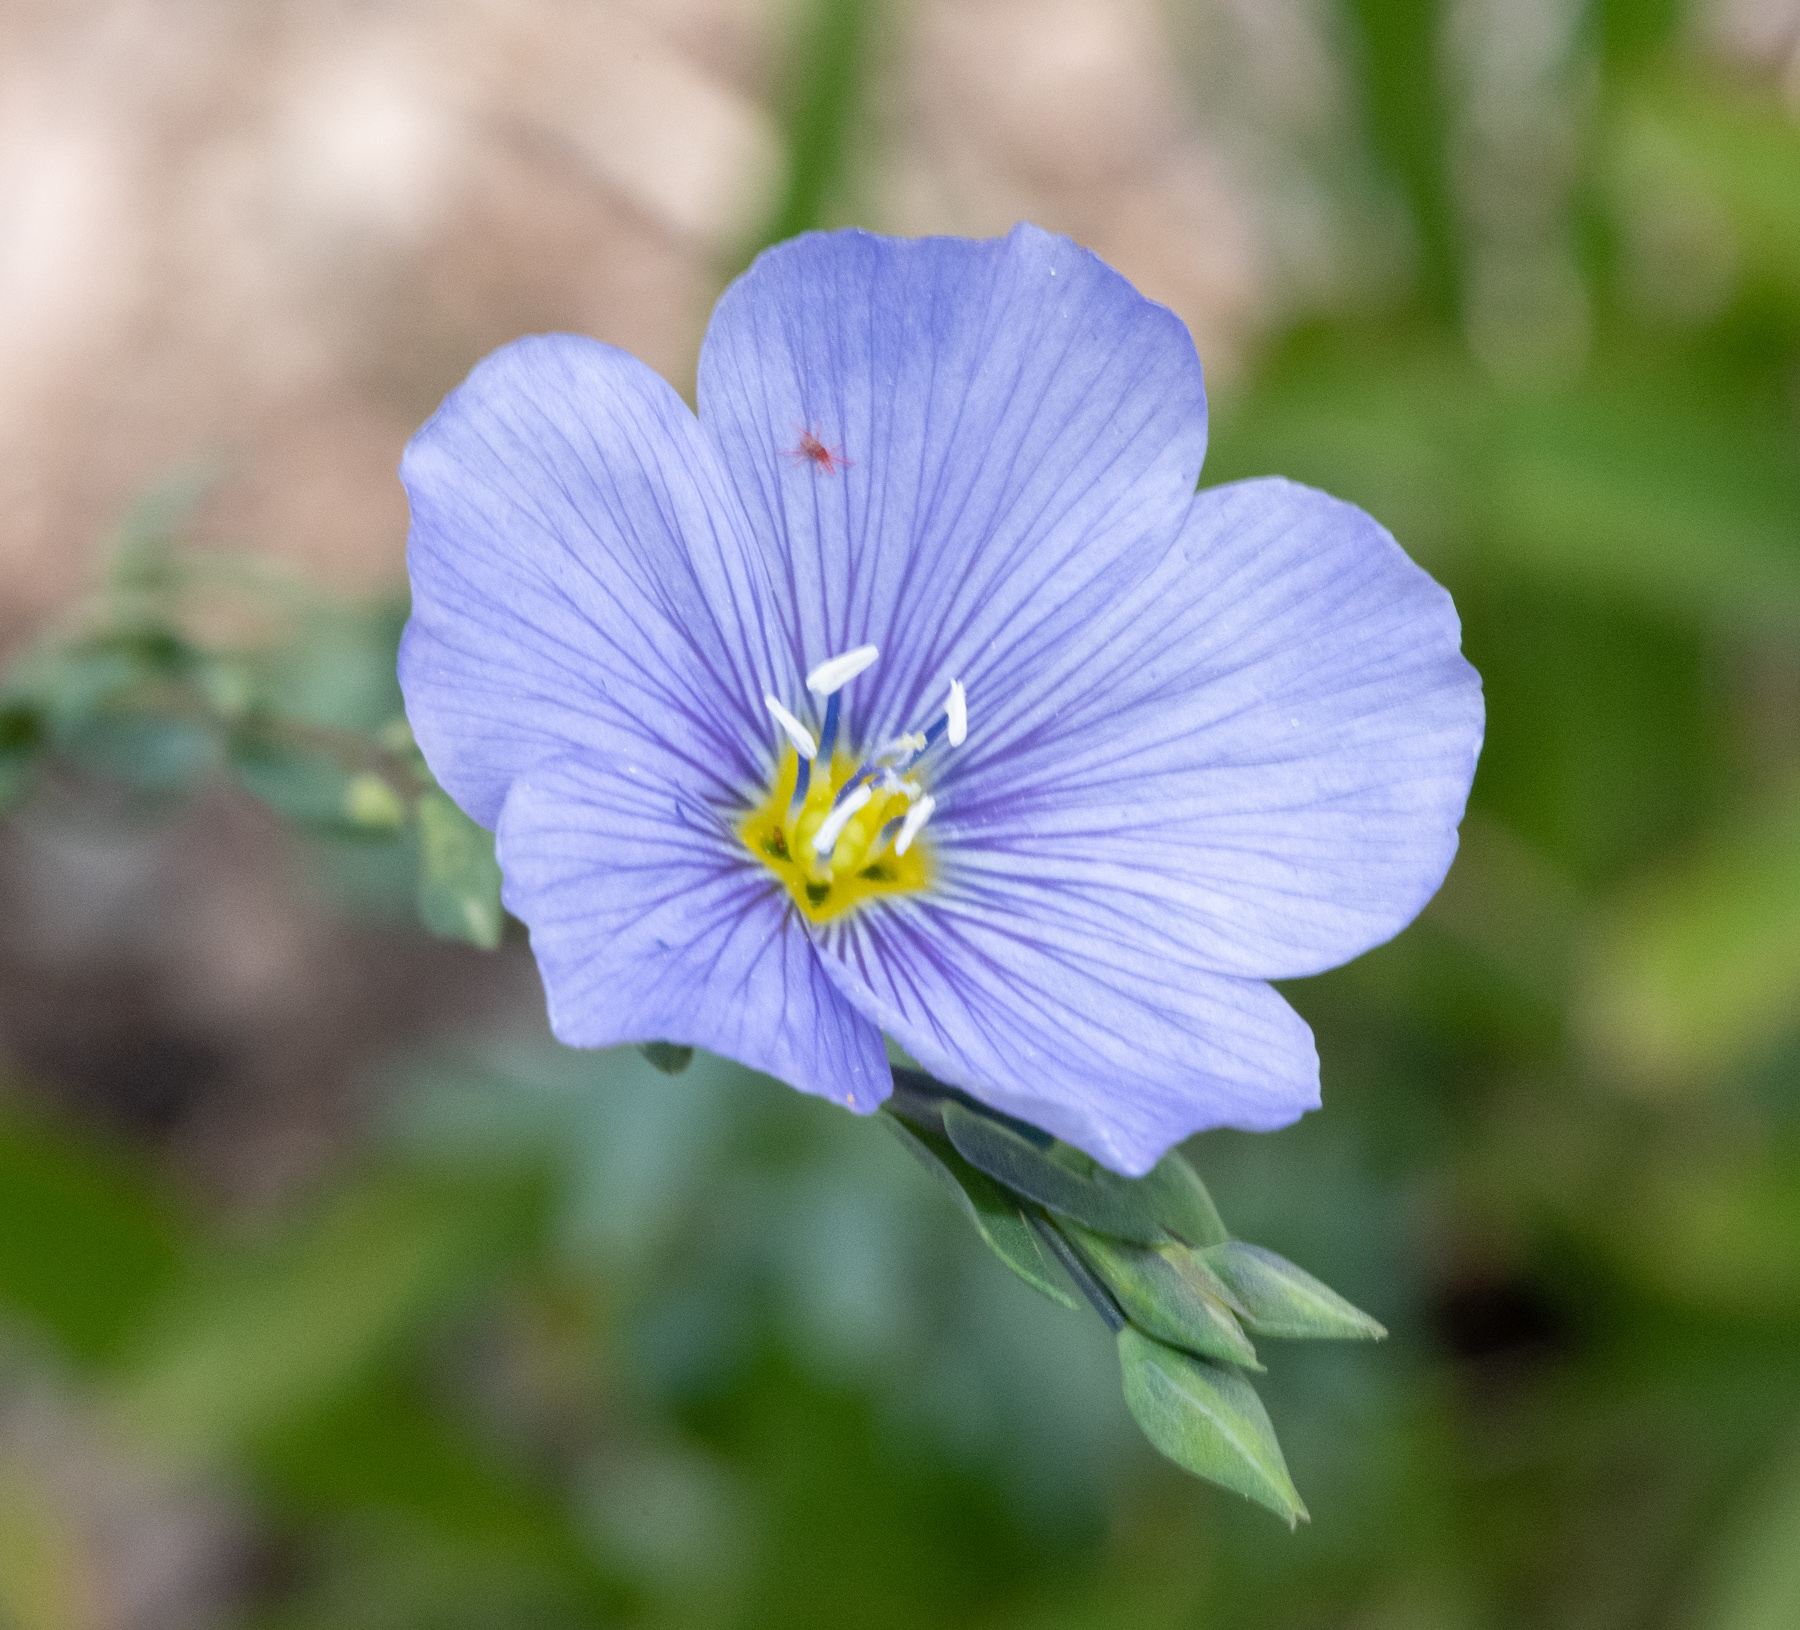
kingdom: Plantae
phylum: Tracheophyta
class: Magnoliopsida
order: Malpighiales
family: Linaceae
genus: Linum
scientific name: Linum lewisii
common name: Prairie flax
